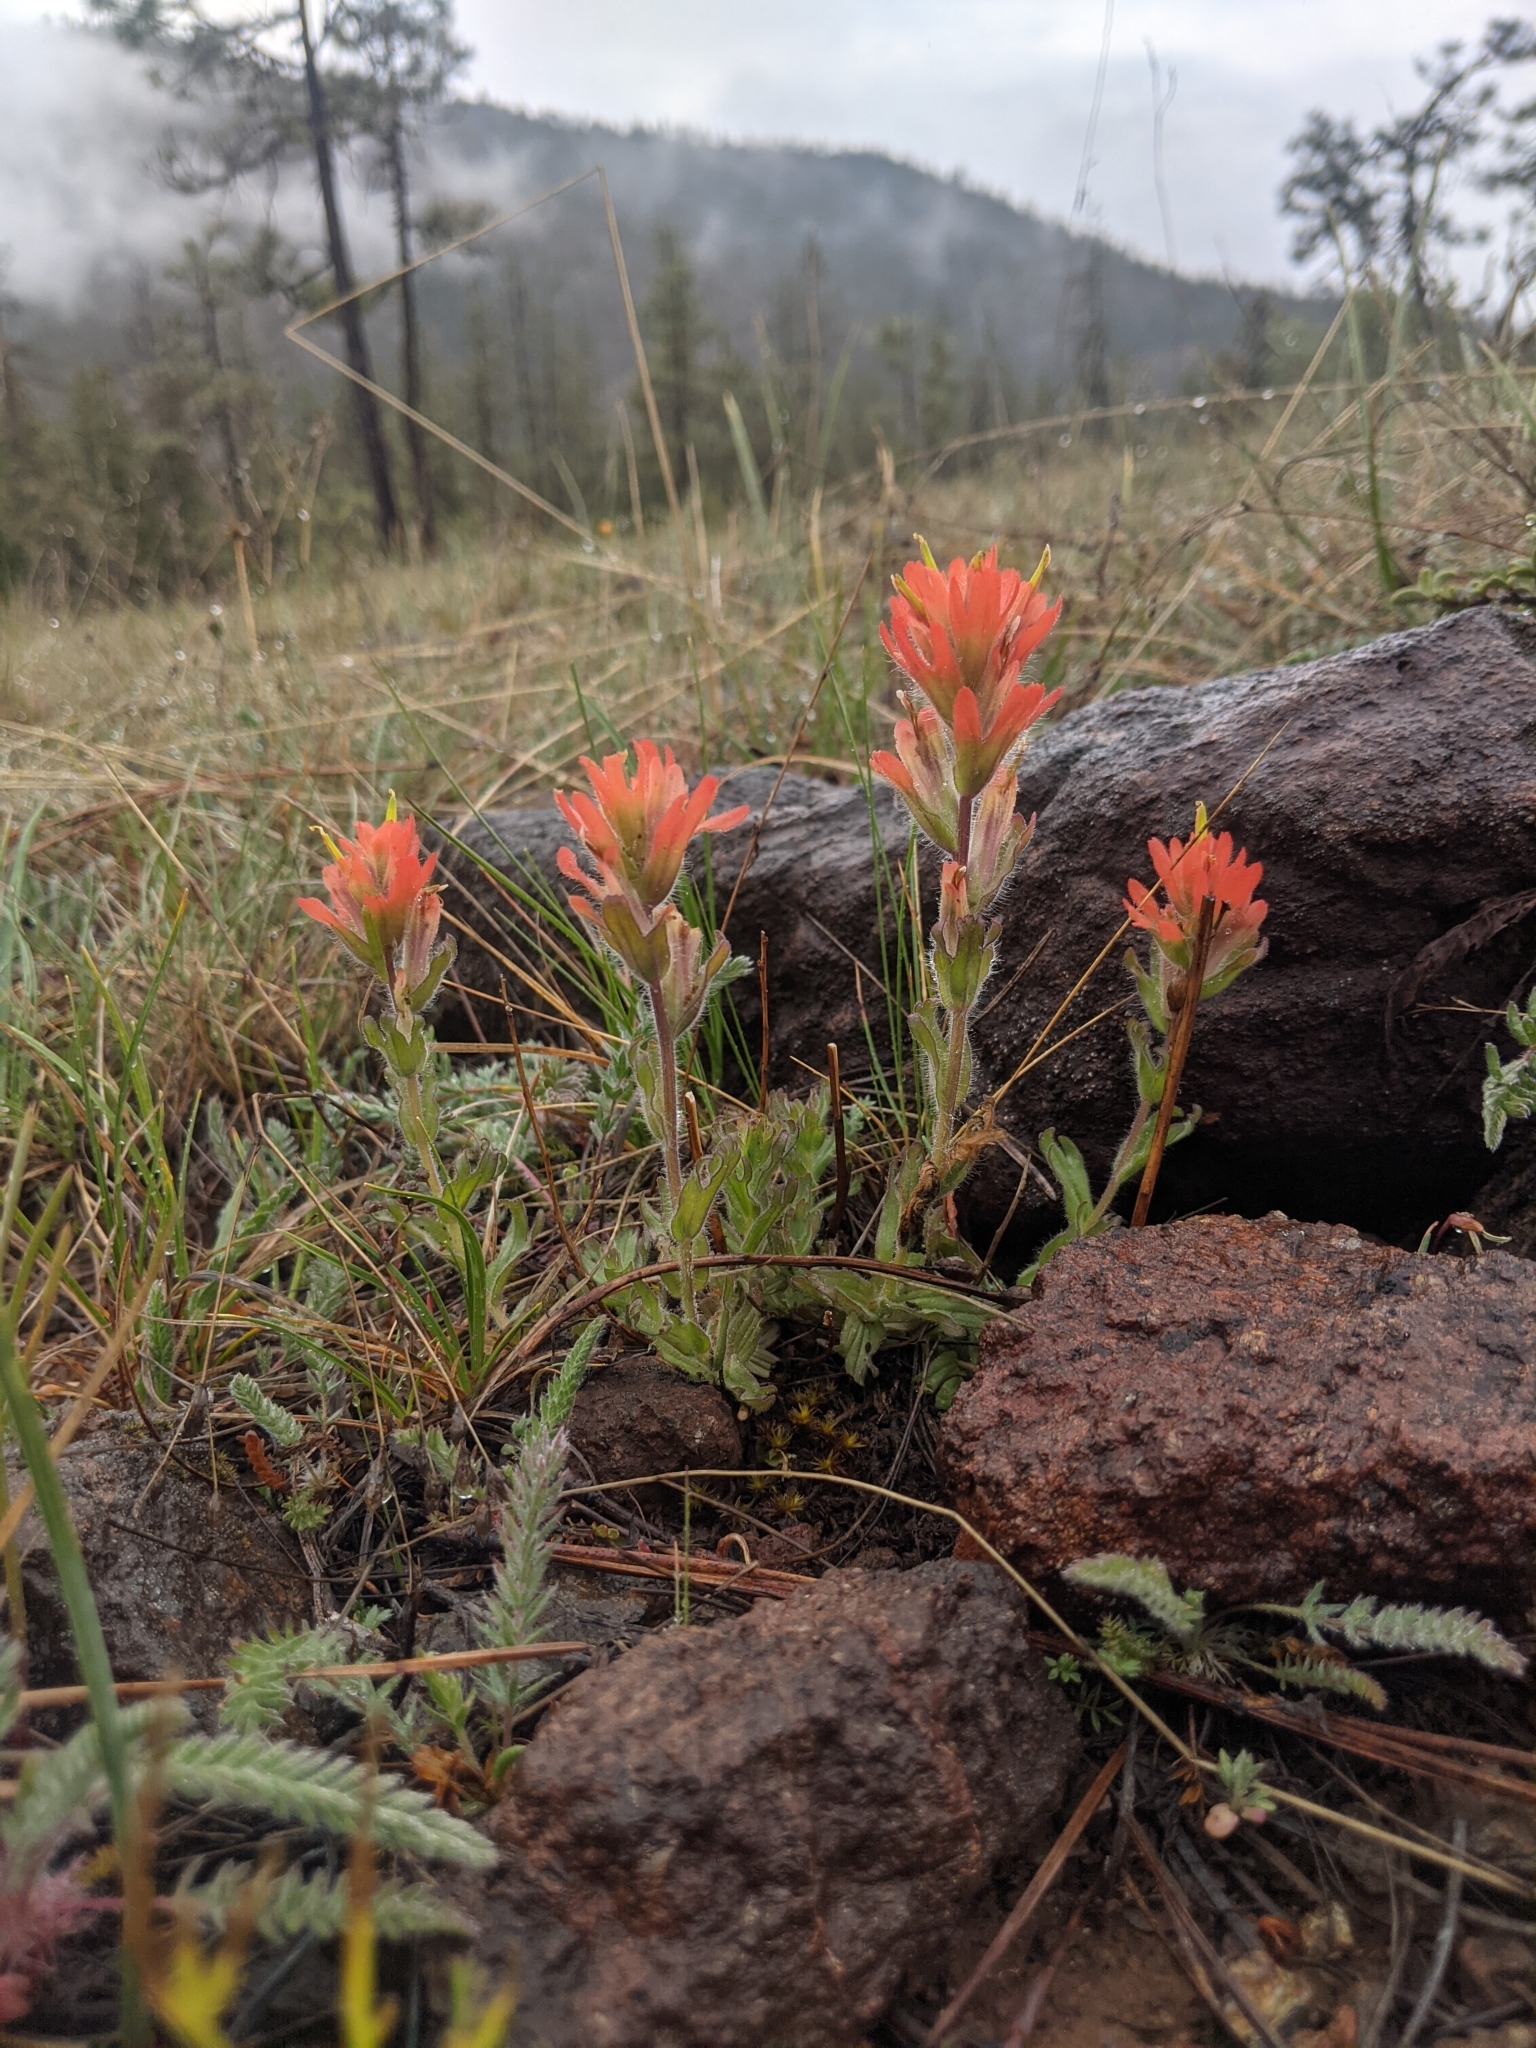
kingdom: Plantae
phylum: Tracheophyta
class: Magnoliopsida
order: Lamiales
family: Orobanchaceae
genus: Castilleja
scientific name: Castilleja brevilobata
